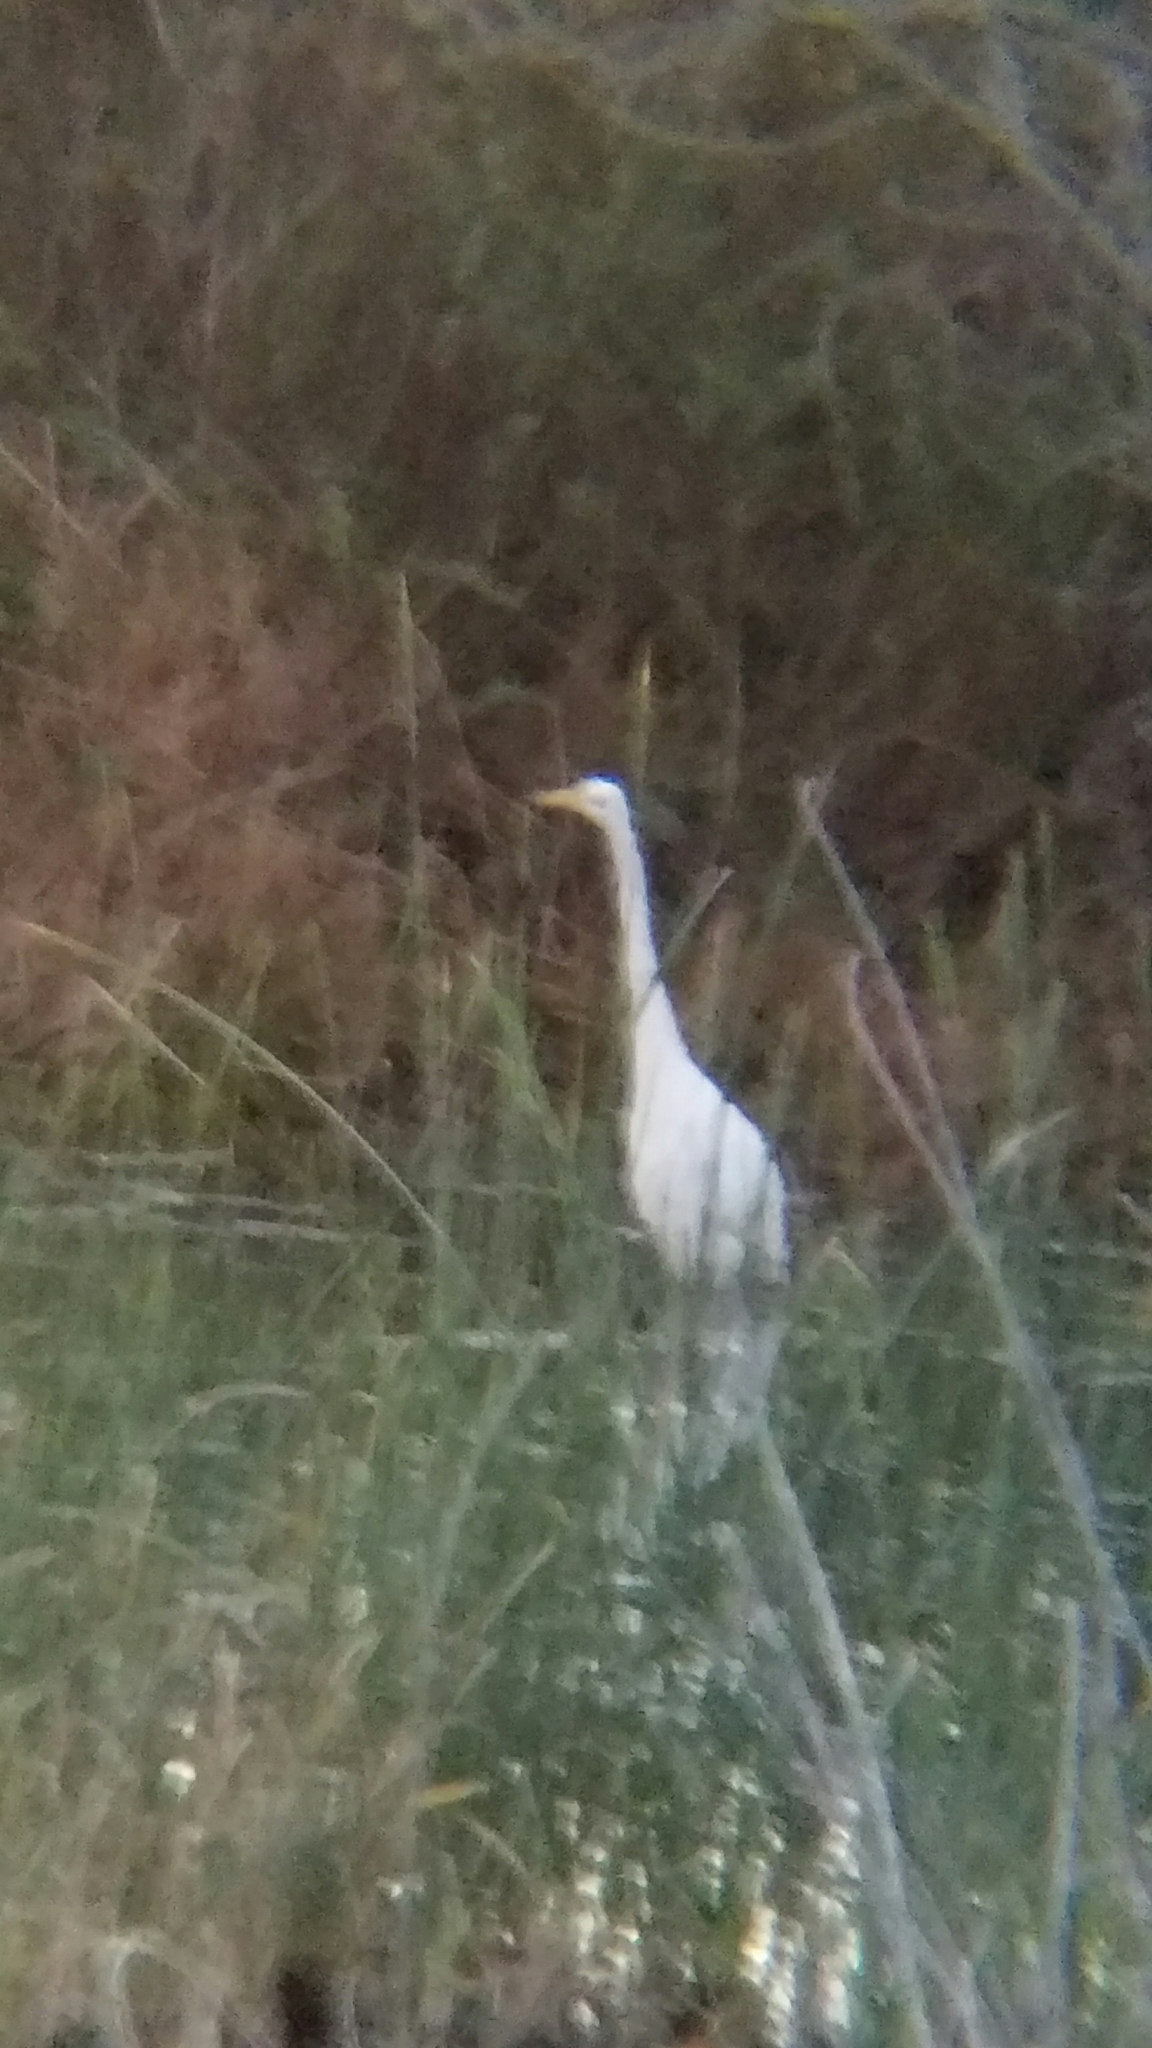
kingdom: Animalia
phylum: Chordata
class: Aves
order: Pelecaniformes
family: Ardeidae
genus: Ardea
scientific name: Ardea alba
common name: Great egret
